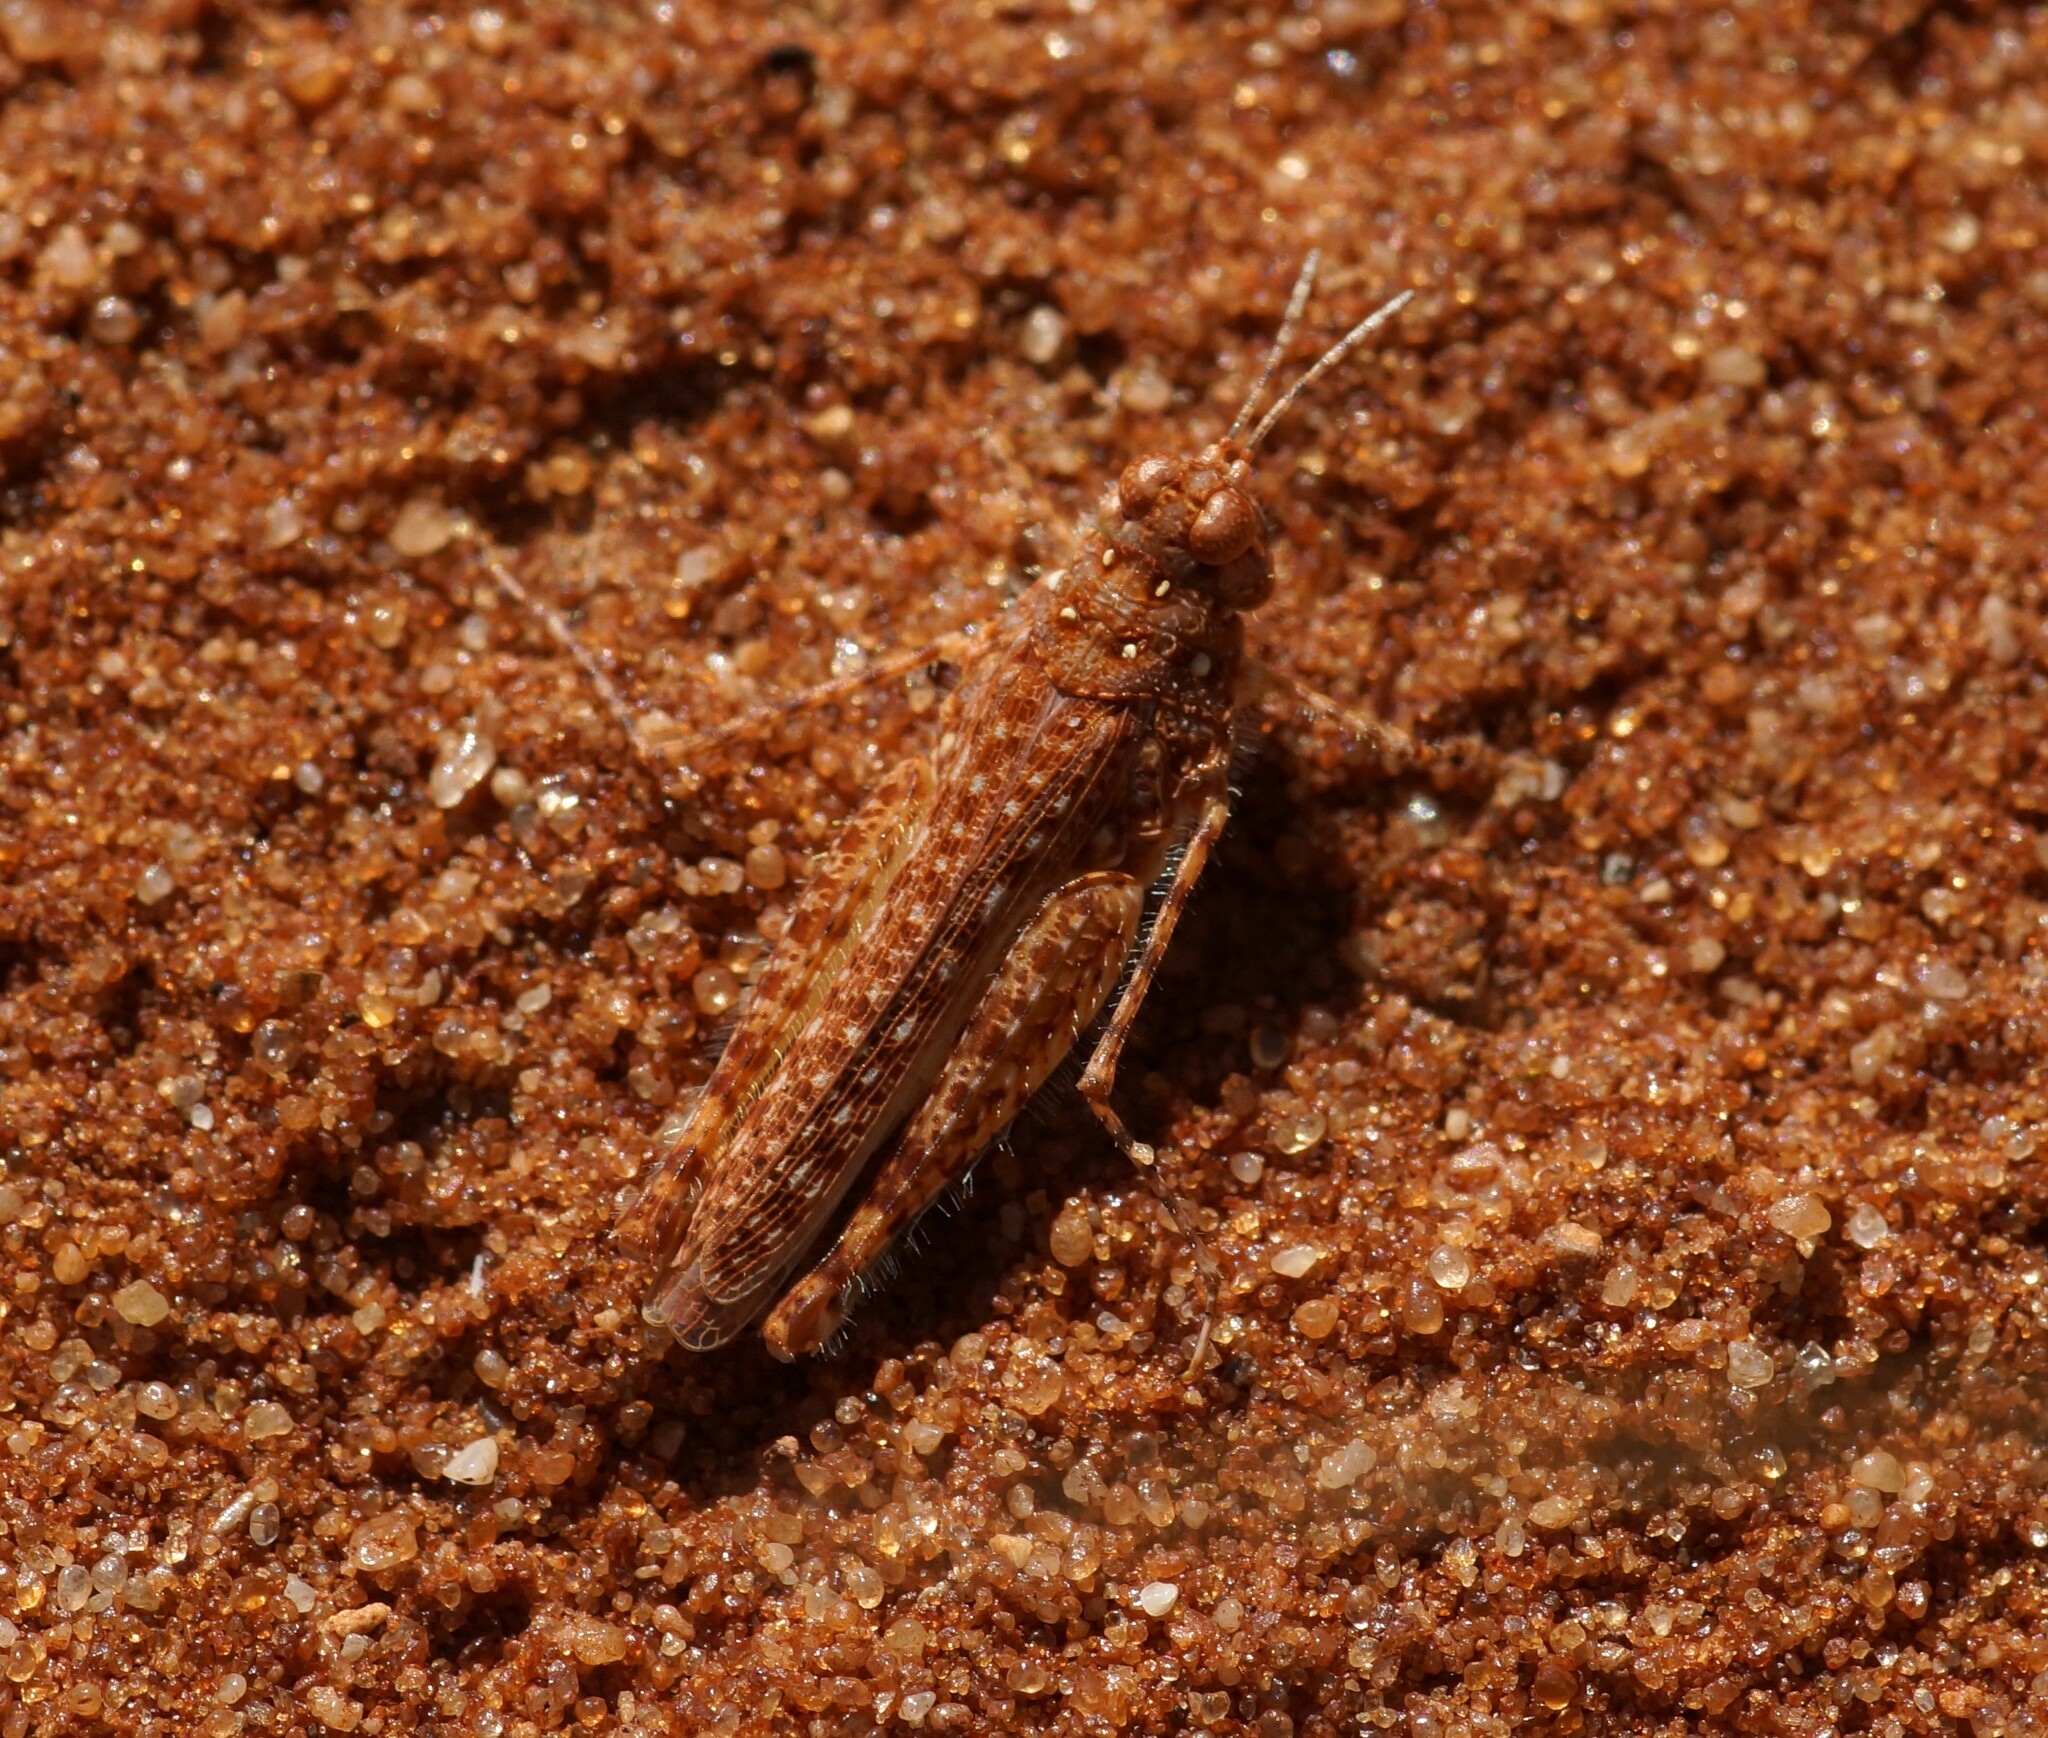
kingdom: Animalia
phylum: Arthropoda
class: Insecta
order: Orthoptera
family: Acrididae
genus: Urnisiella
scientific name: Urnisiella rubropunctata
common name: Long-legged sandhopper
